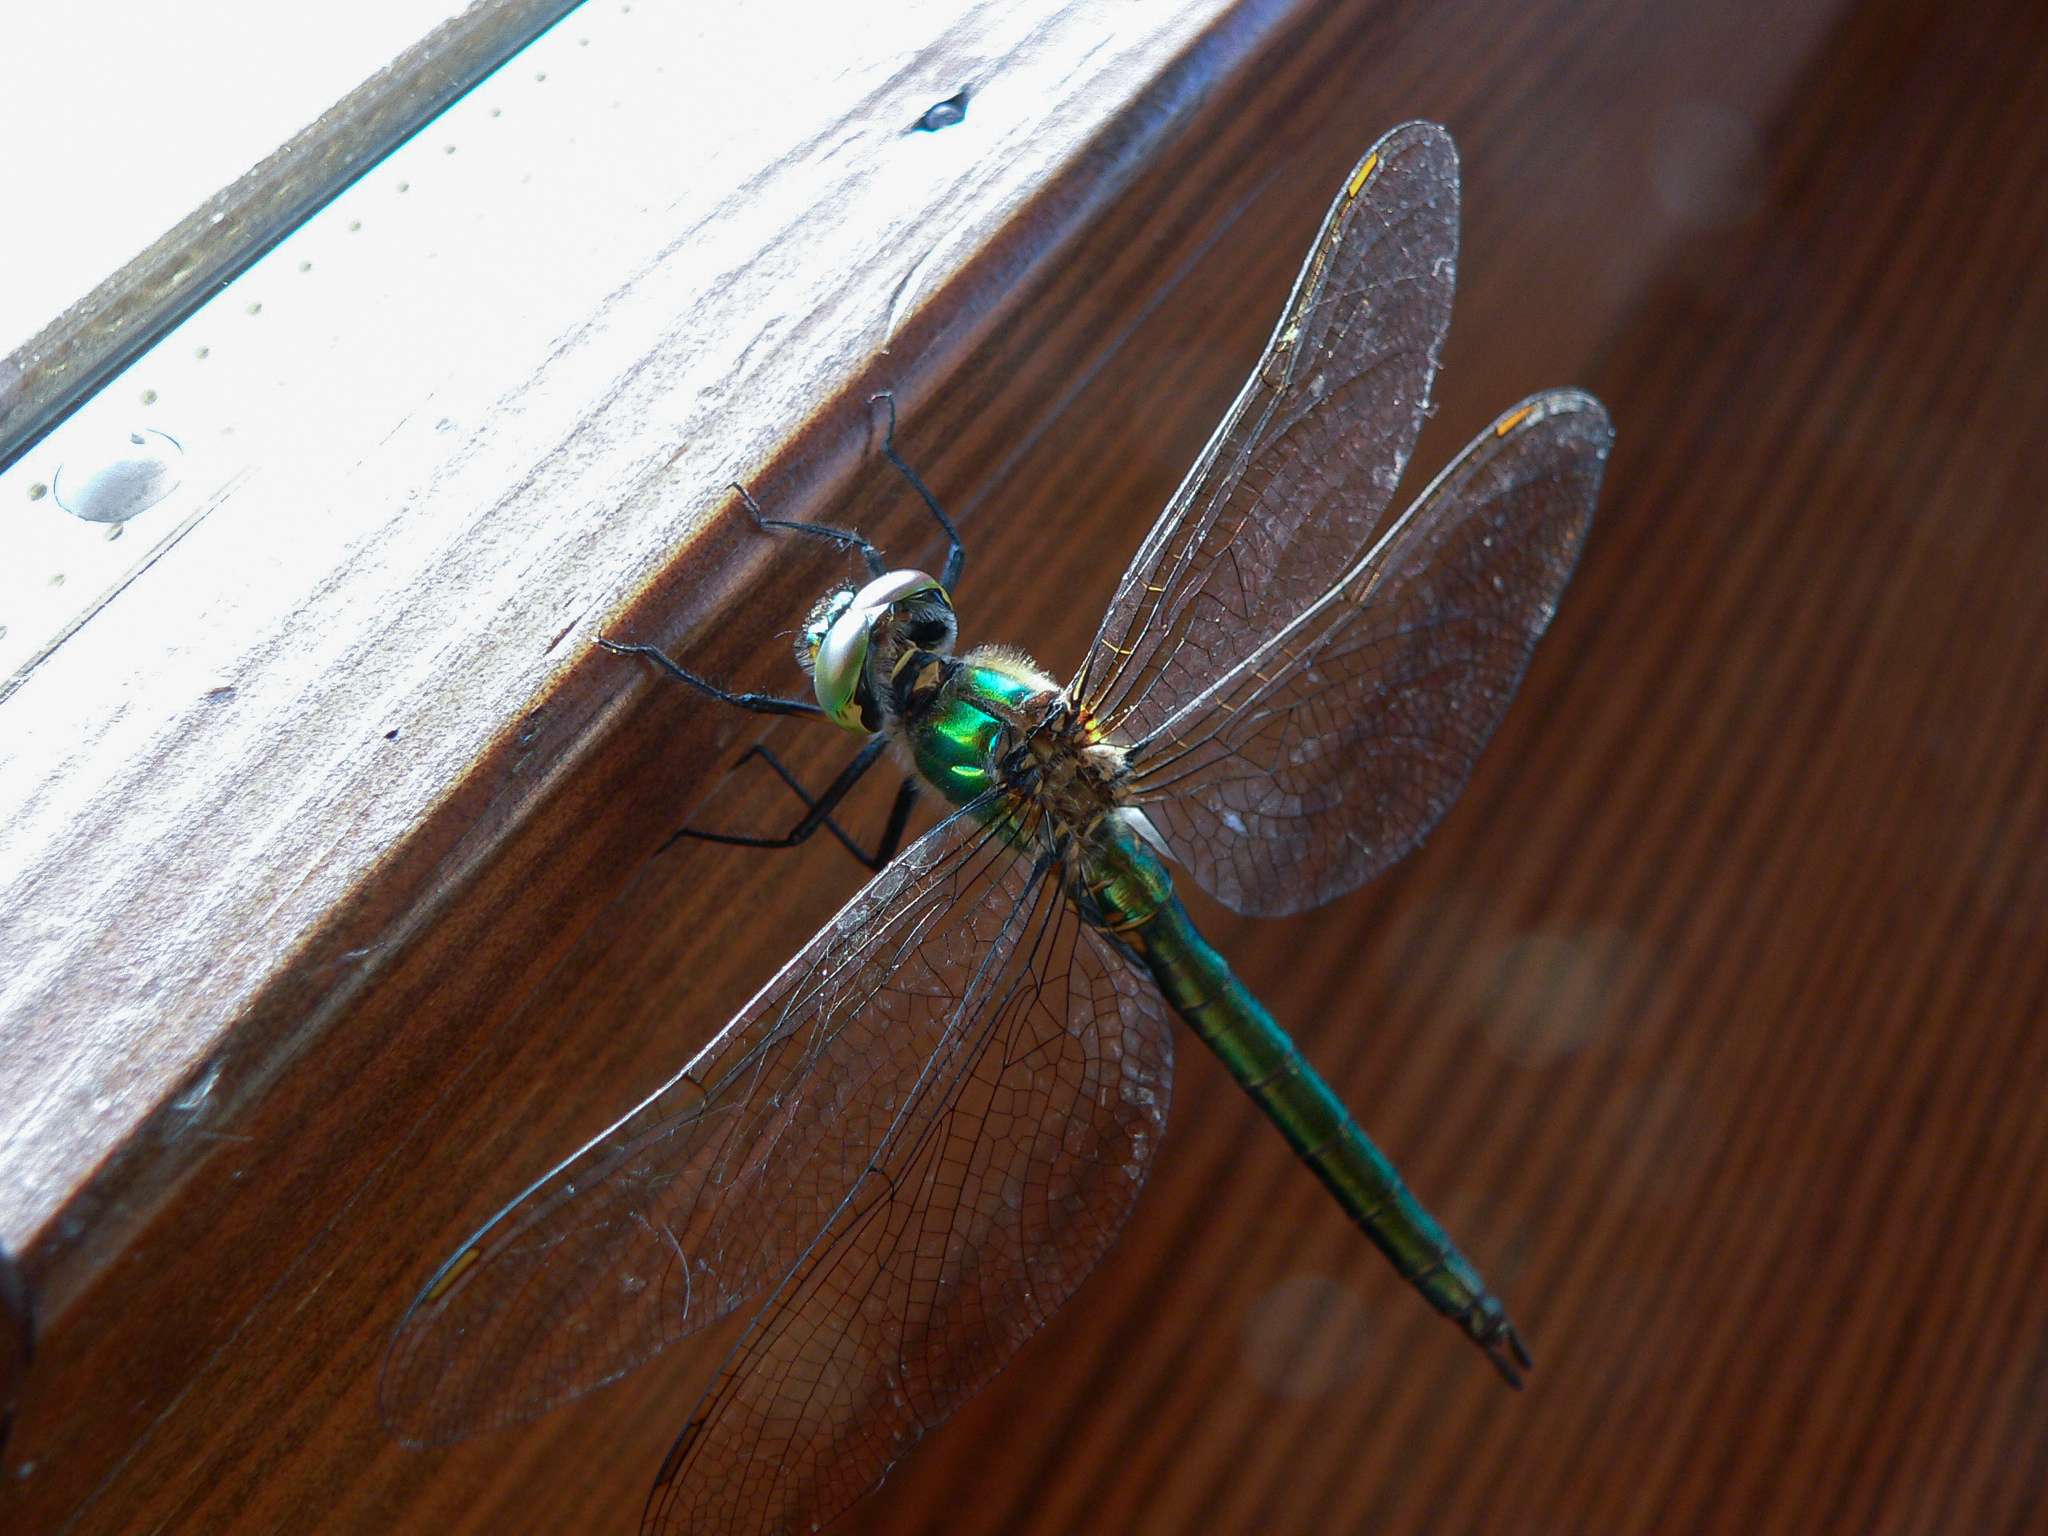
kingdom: Animalia
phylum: Arthropoda
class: Insecta
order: Odonata
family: Corduliidae
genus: Somatochlora
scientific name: Somatochlora metallica
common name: Brilliant emerald
